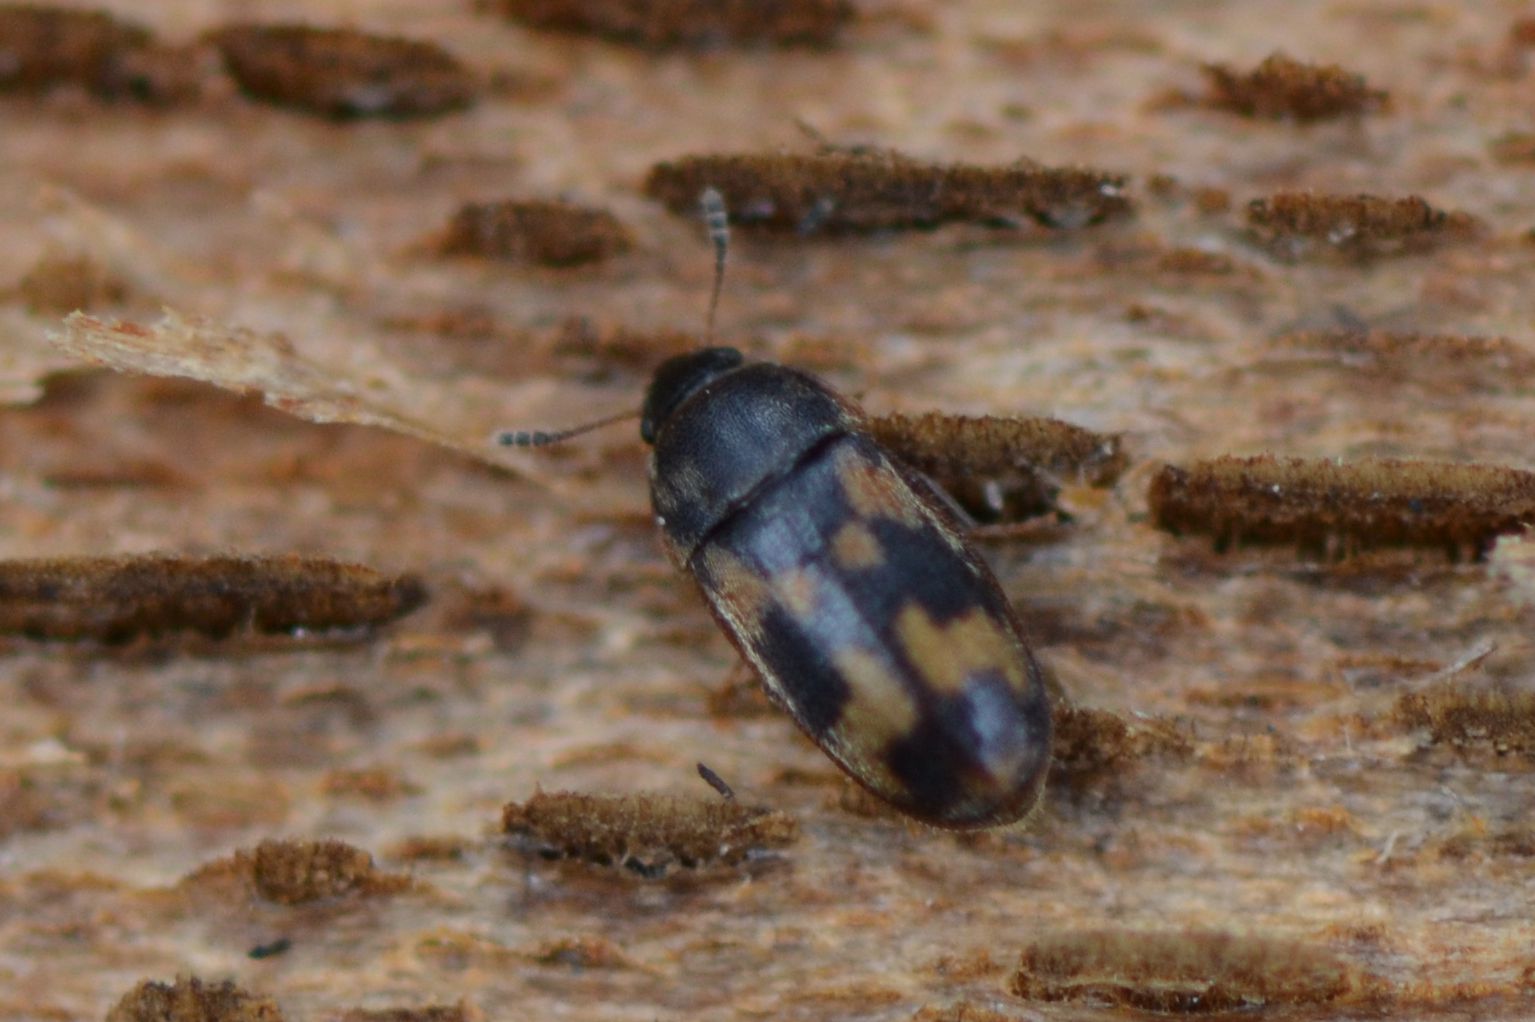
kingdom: Animalia
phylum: Arthropoda
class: Insecta
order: Coleoptera
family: Mycetophagidae
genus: Litargus
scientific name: Litargus connexus
